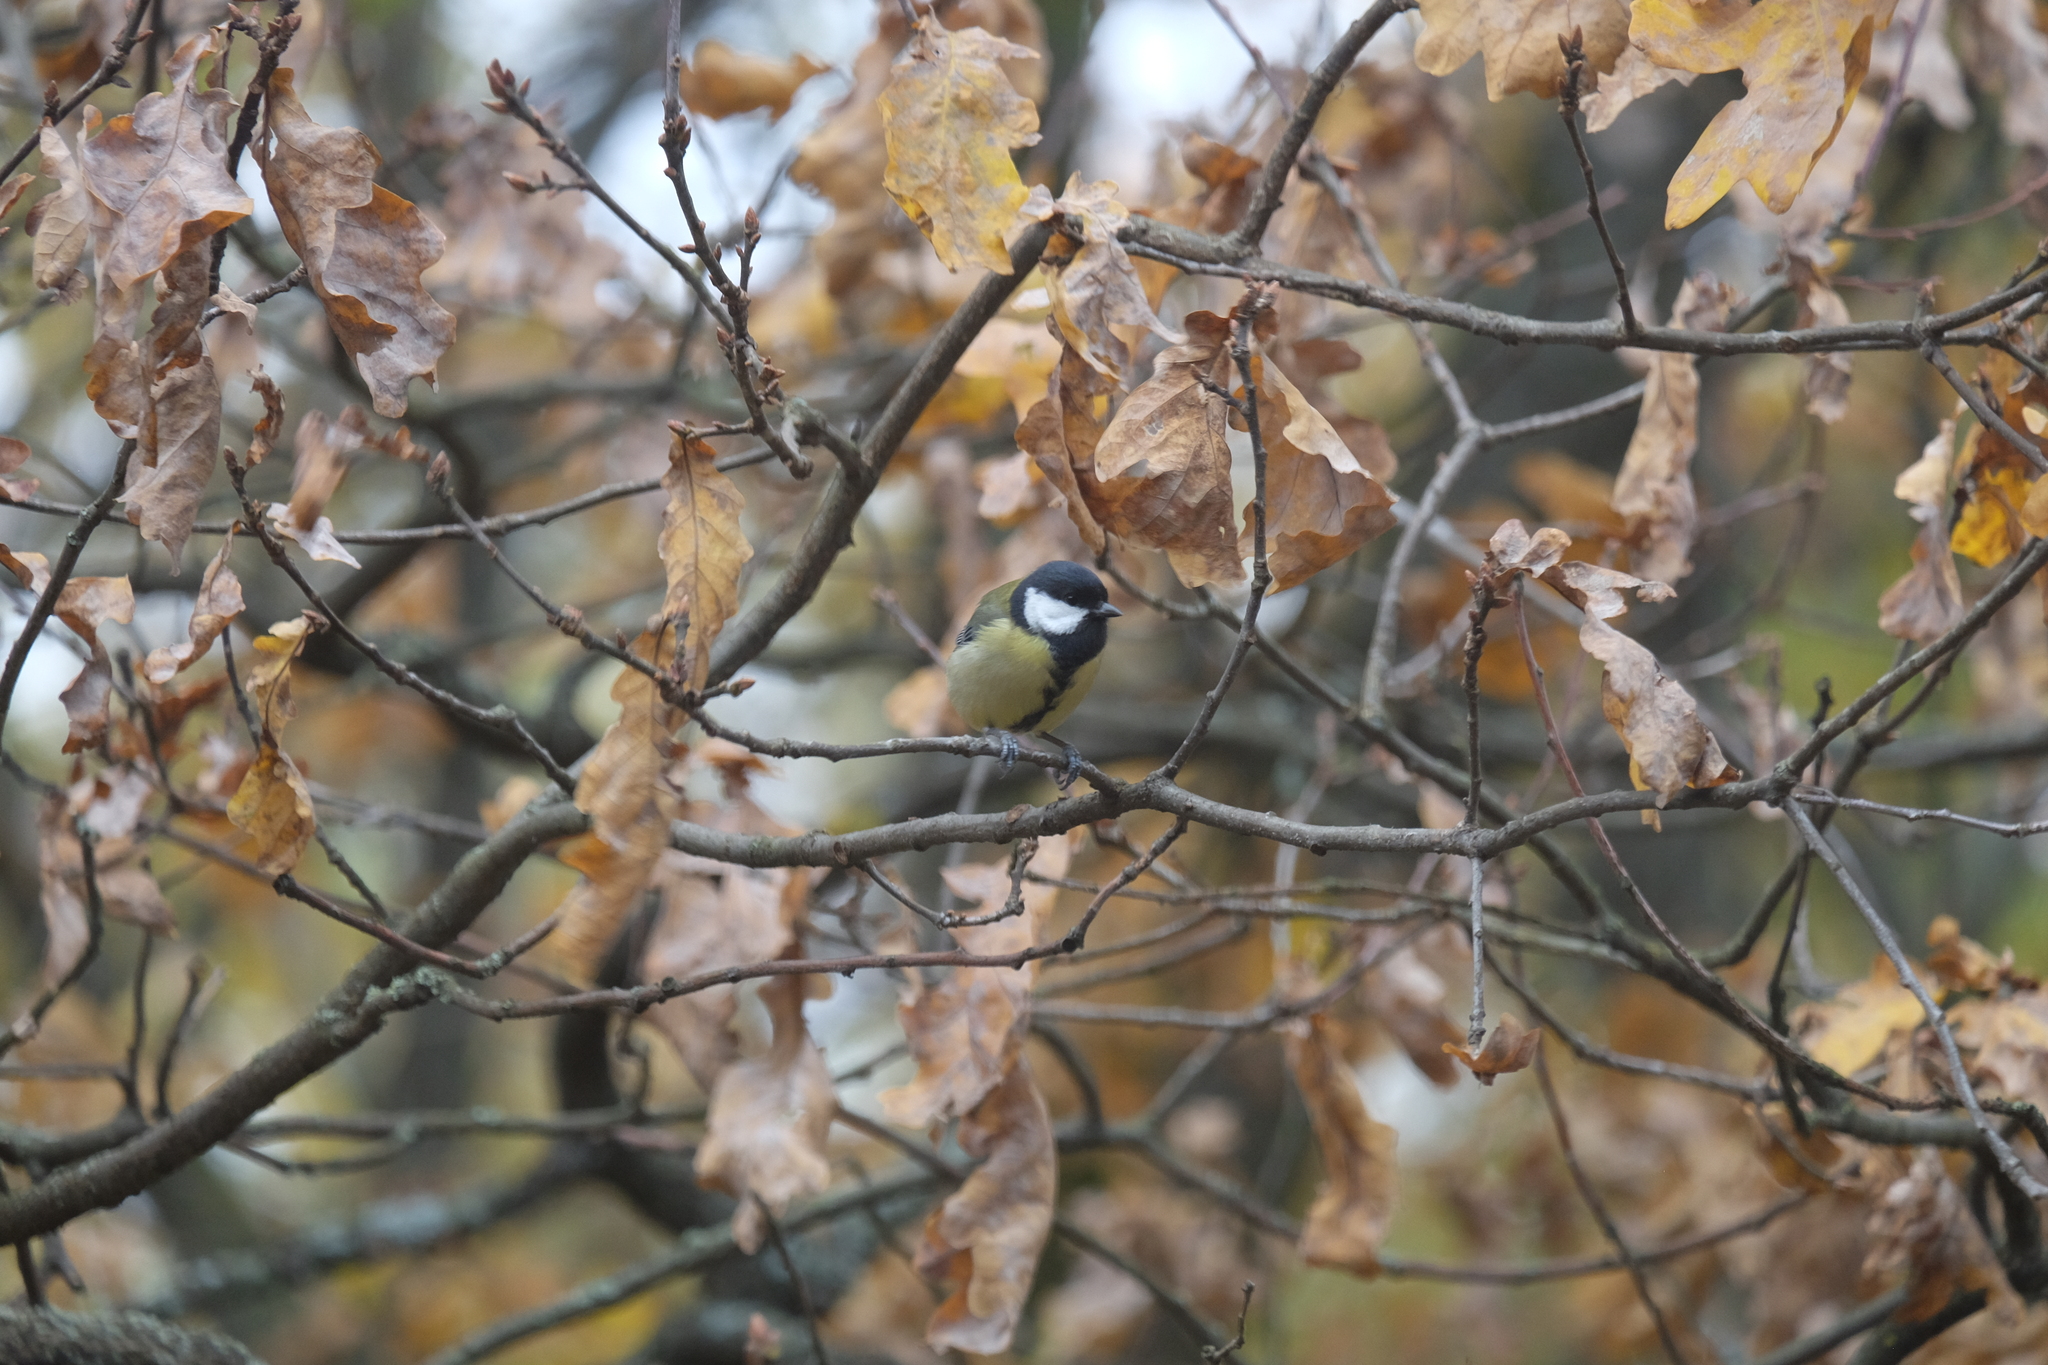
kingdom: Animalia
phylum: Chordata
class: Aves
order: Passeriformes
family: Paridae
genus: Parus
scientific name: Parus major
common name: Great tit
